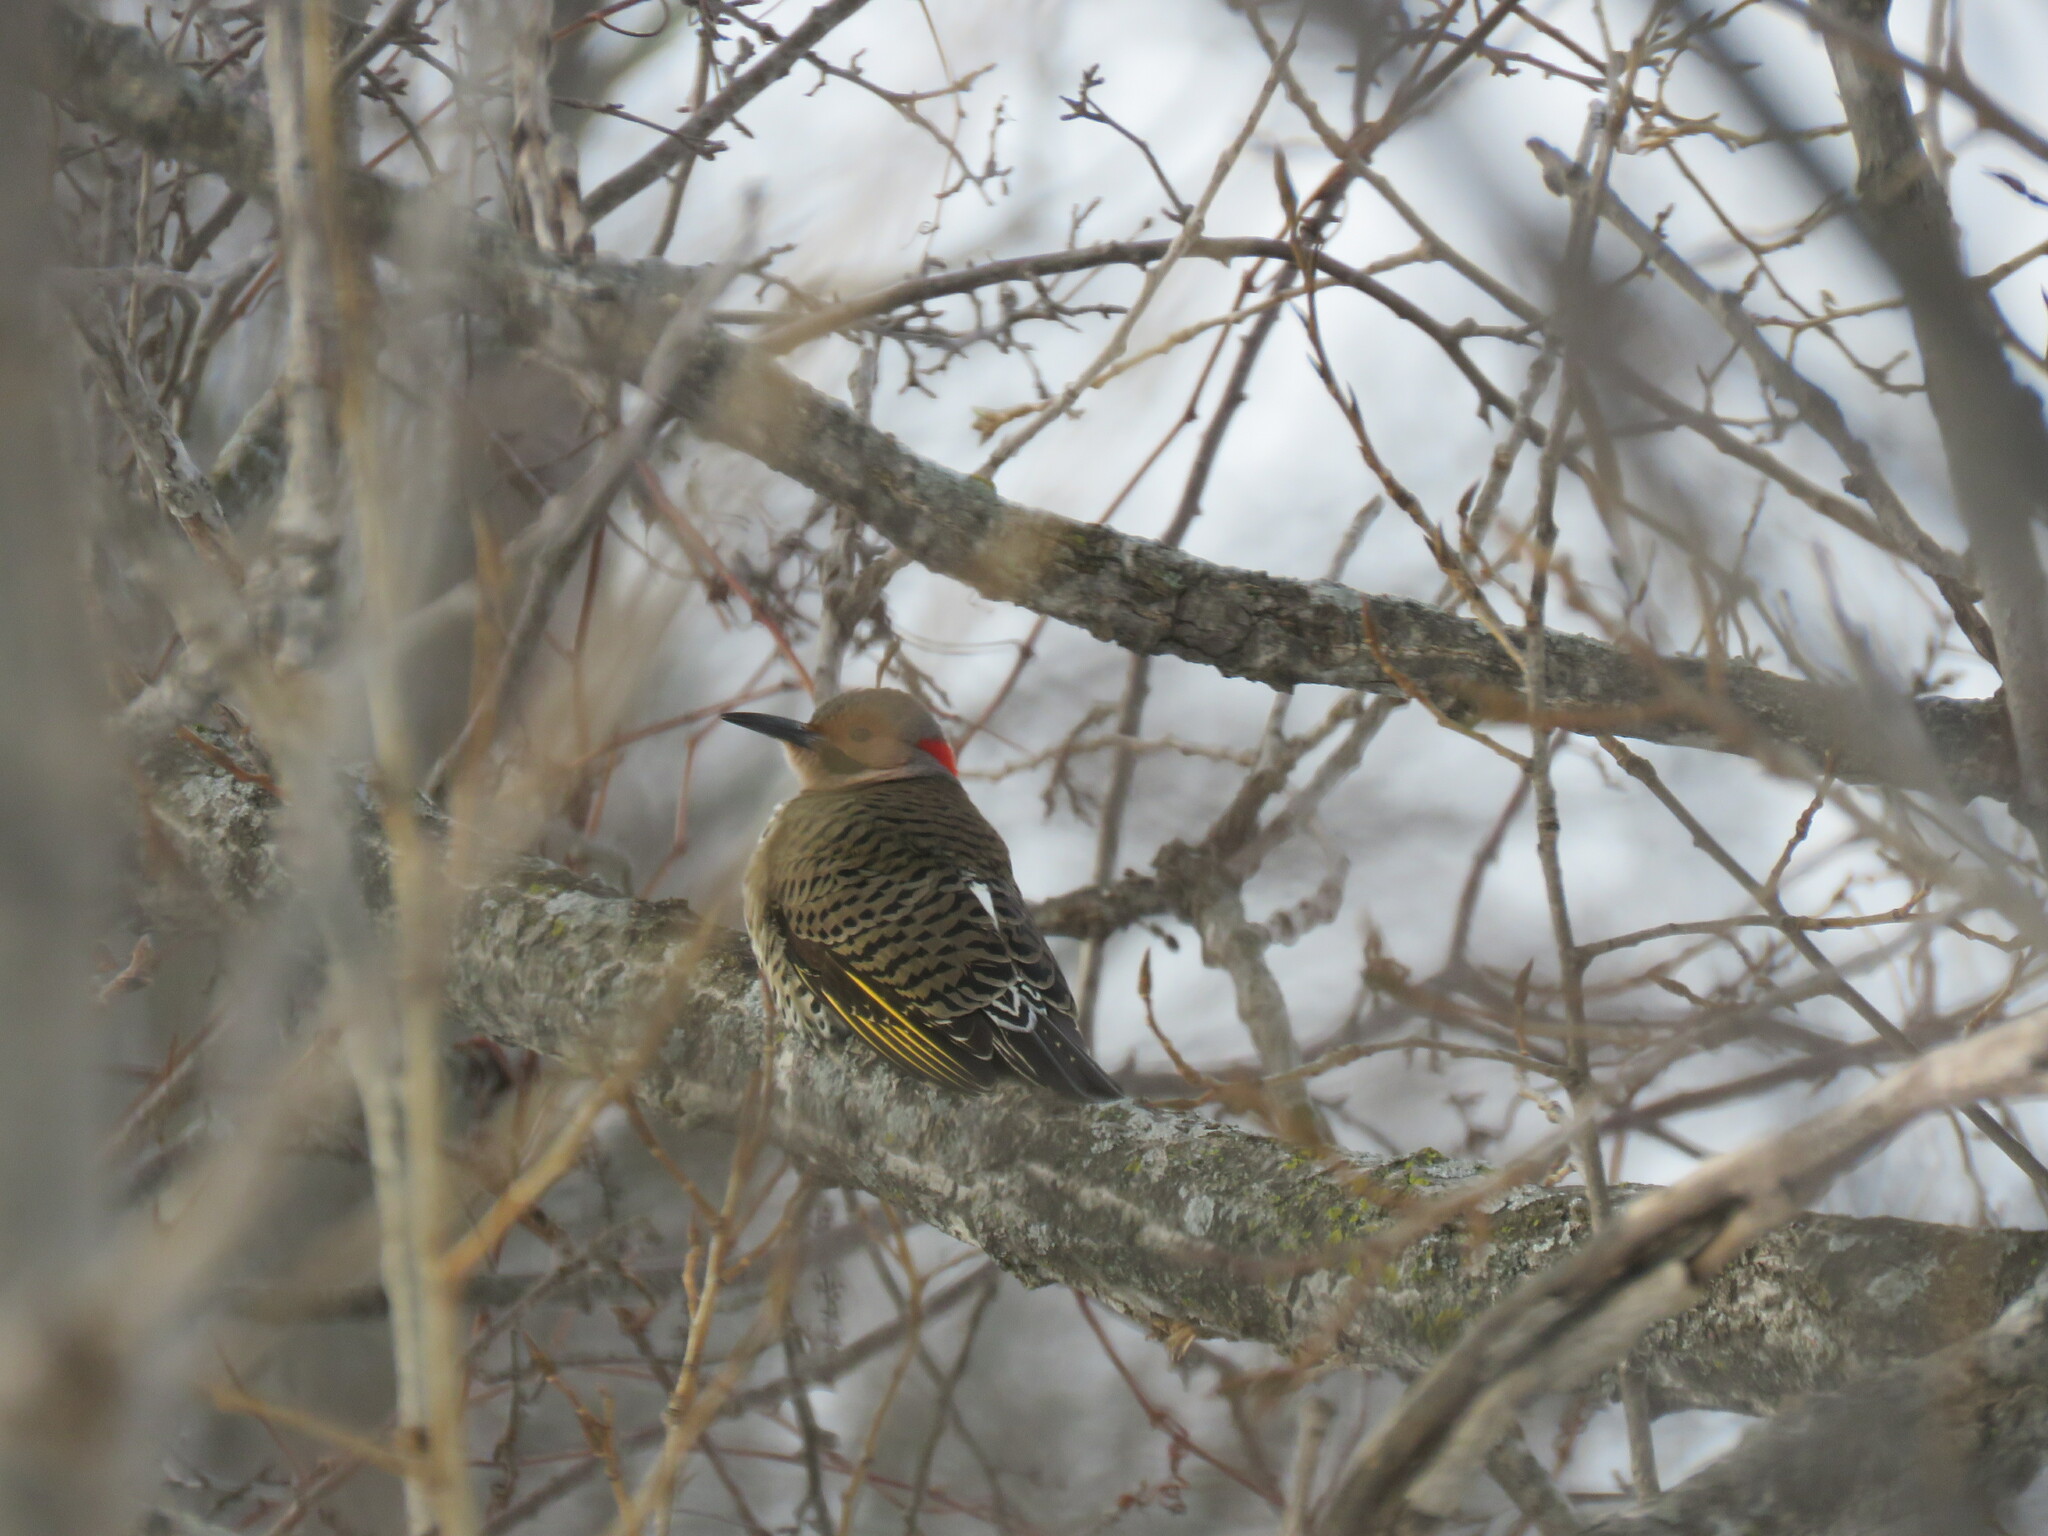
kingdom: Animalia
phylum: Chordata
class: Aves
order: Piciformes
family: Picidae
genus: Colaptes
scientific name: Colaptes auratus
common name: Northern flicker
